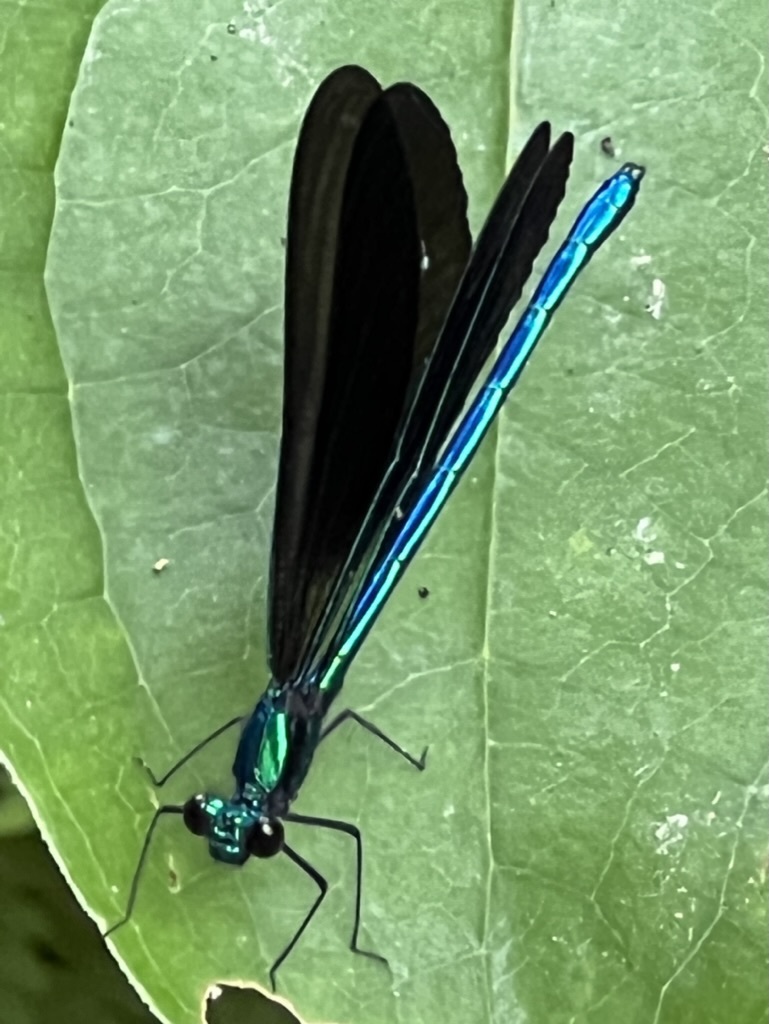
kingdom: Animalia
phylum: Arthropoda
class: Insecta
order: Odonata
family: Calopterygidae
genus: Calopteryx
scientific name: Calopteryx maculata
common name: Ebony jewelwing
